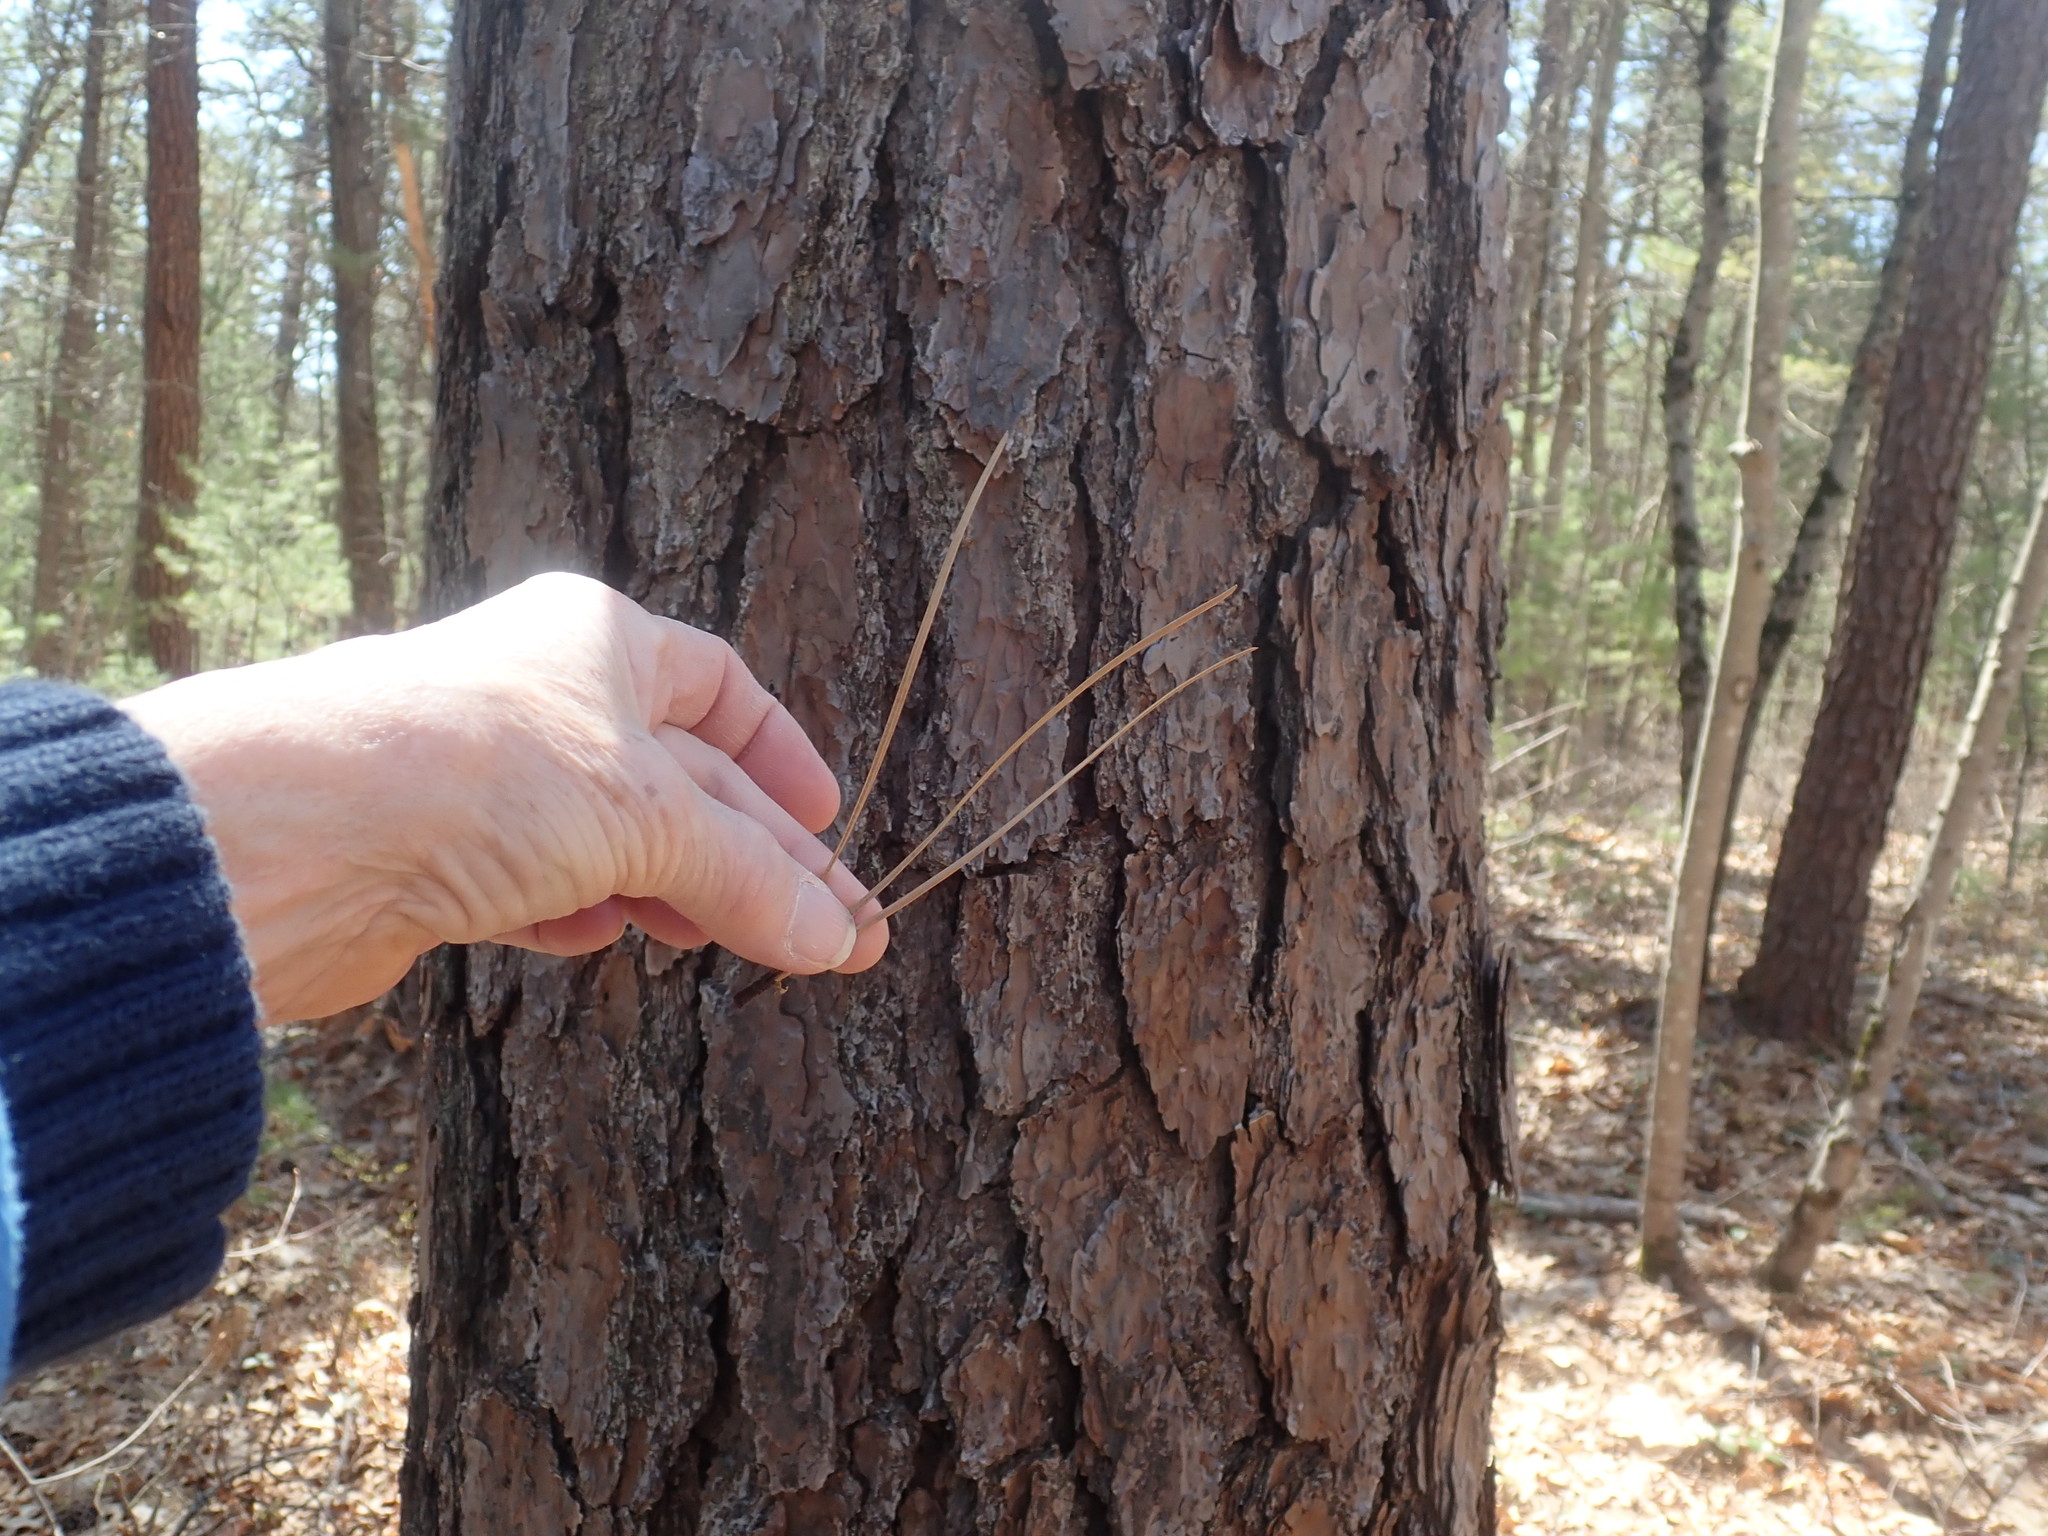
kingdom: Plantae
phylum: Tracheophyta
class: Pinopsida
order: Pinales
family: Pinaceae
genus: Pinus
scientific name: Pinus rigida
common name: Pitch pine
